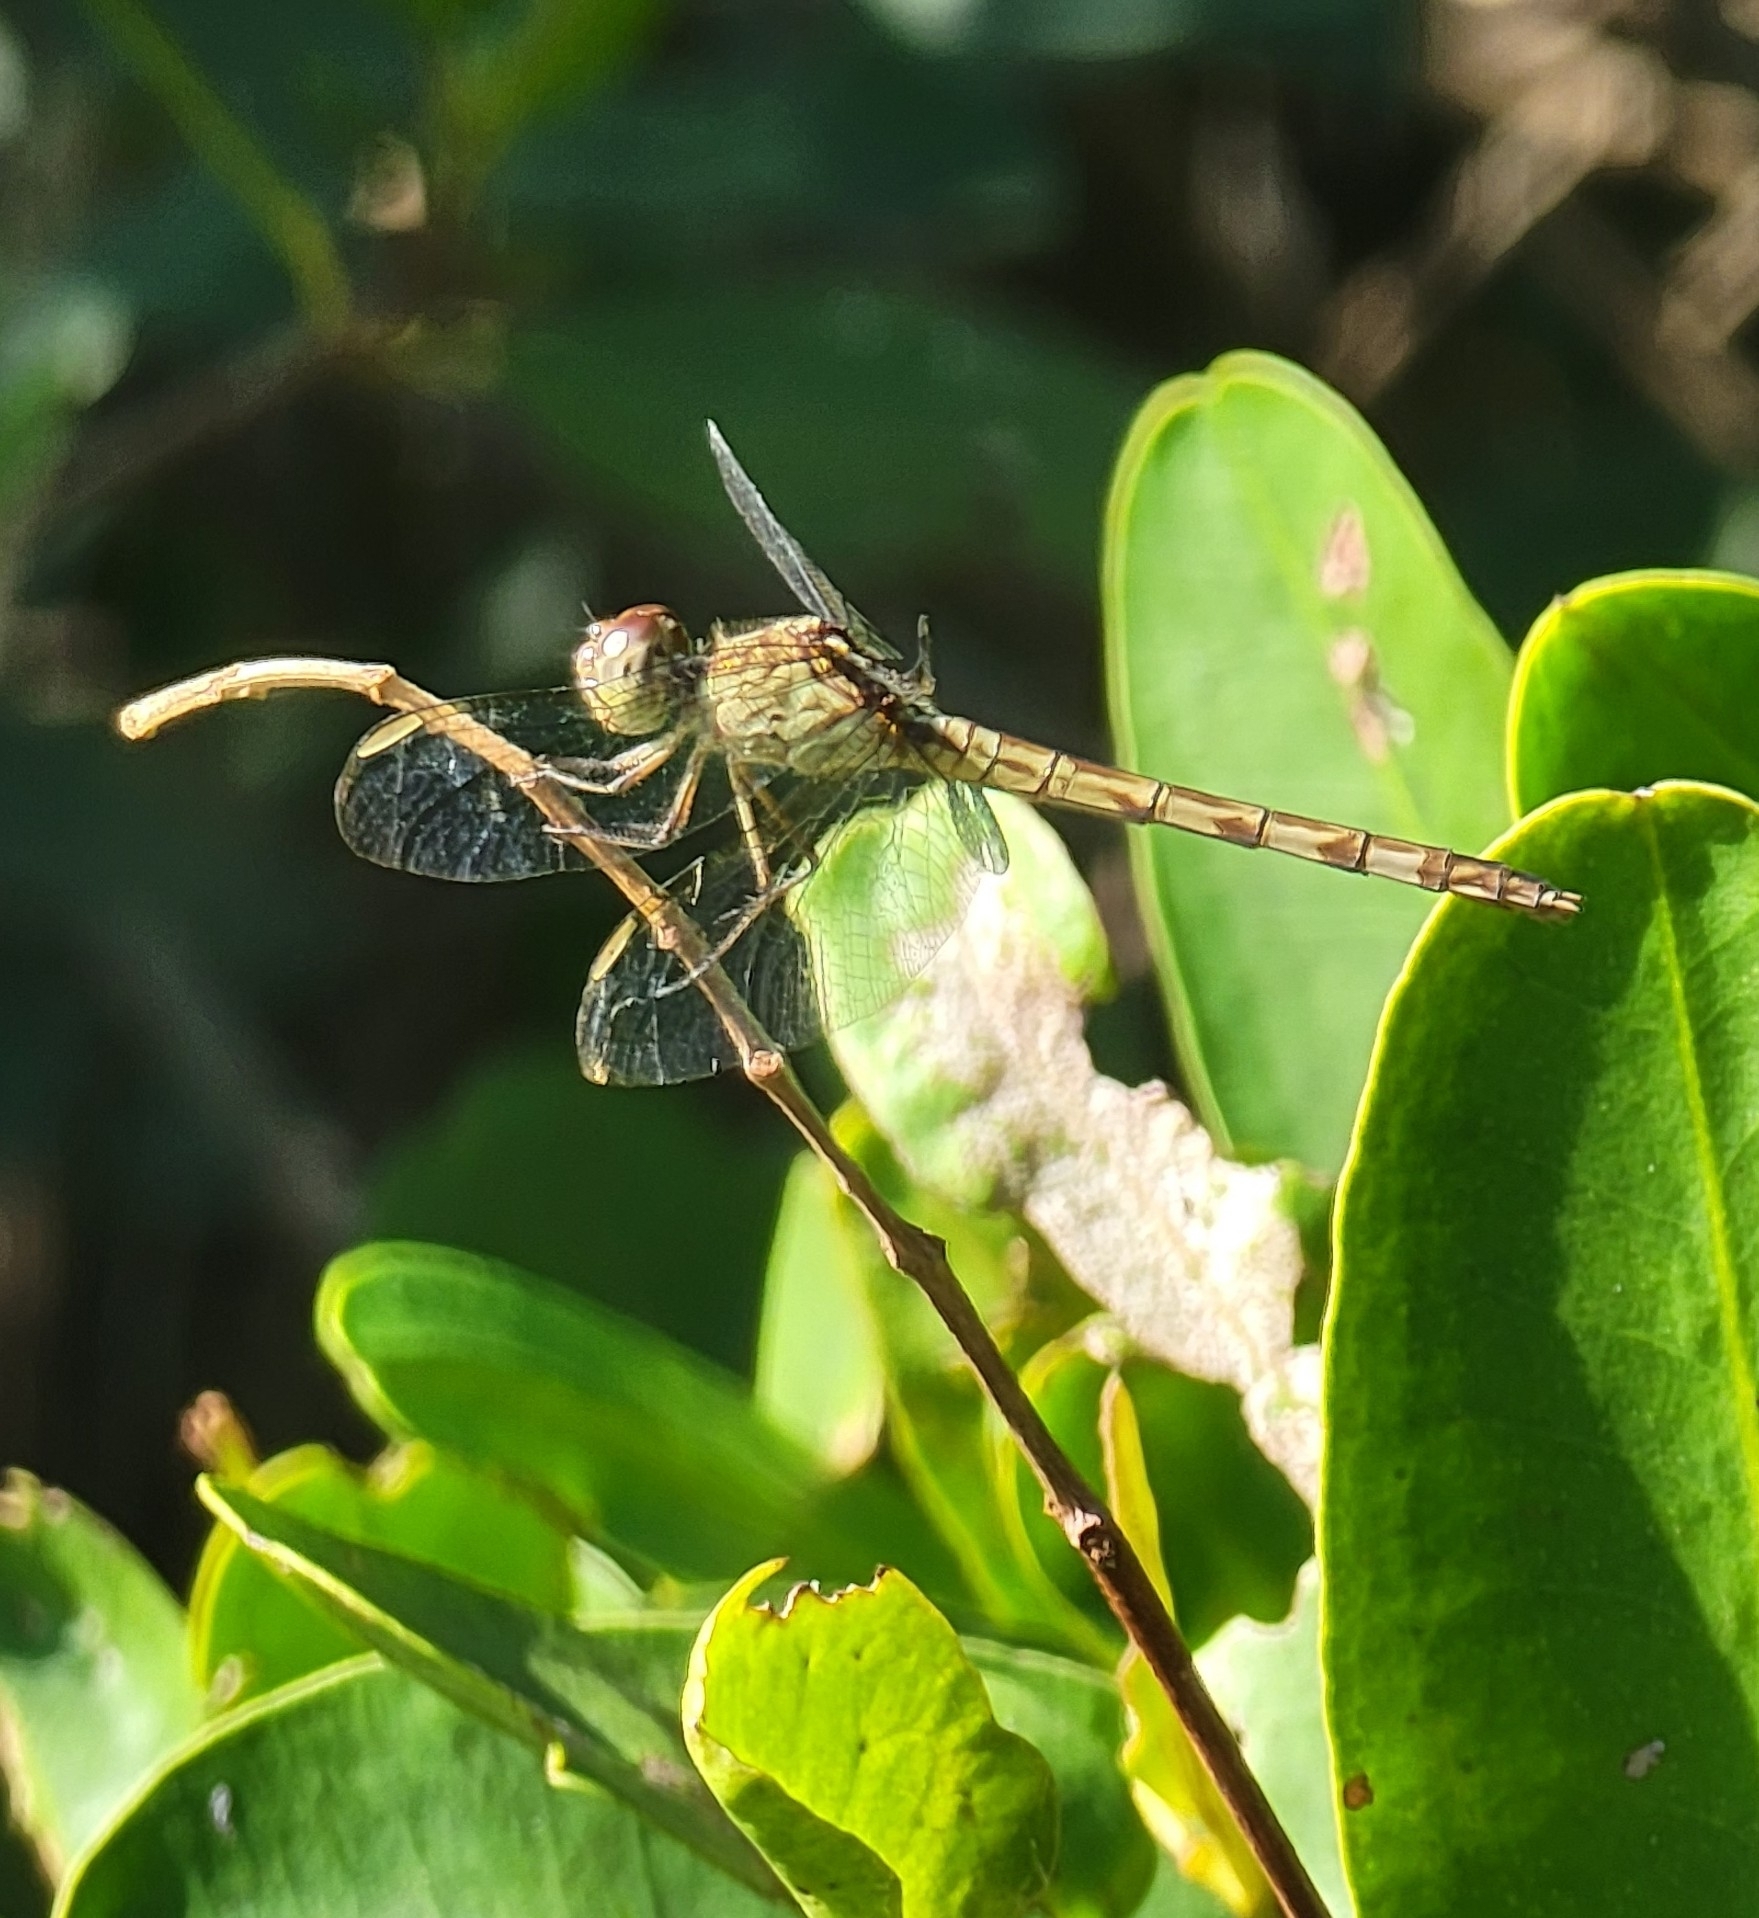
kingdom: Animalia
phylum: Arthropoda
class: Insecta
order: Odonata
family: Libellulidae
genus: Erythrodiplax
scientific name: Erythrodiplax umbrata
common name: Band-winged dragonlet
